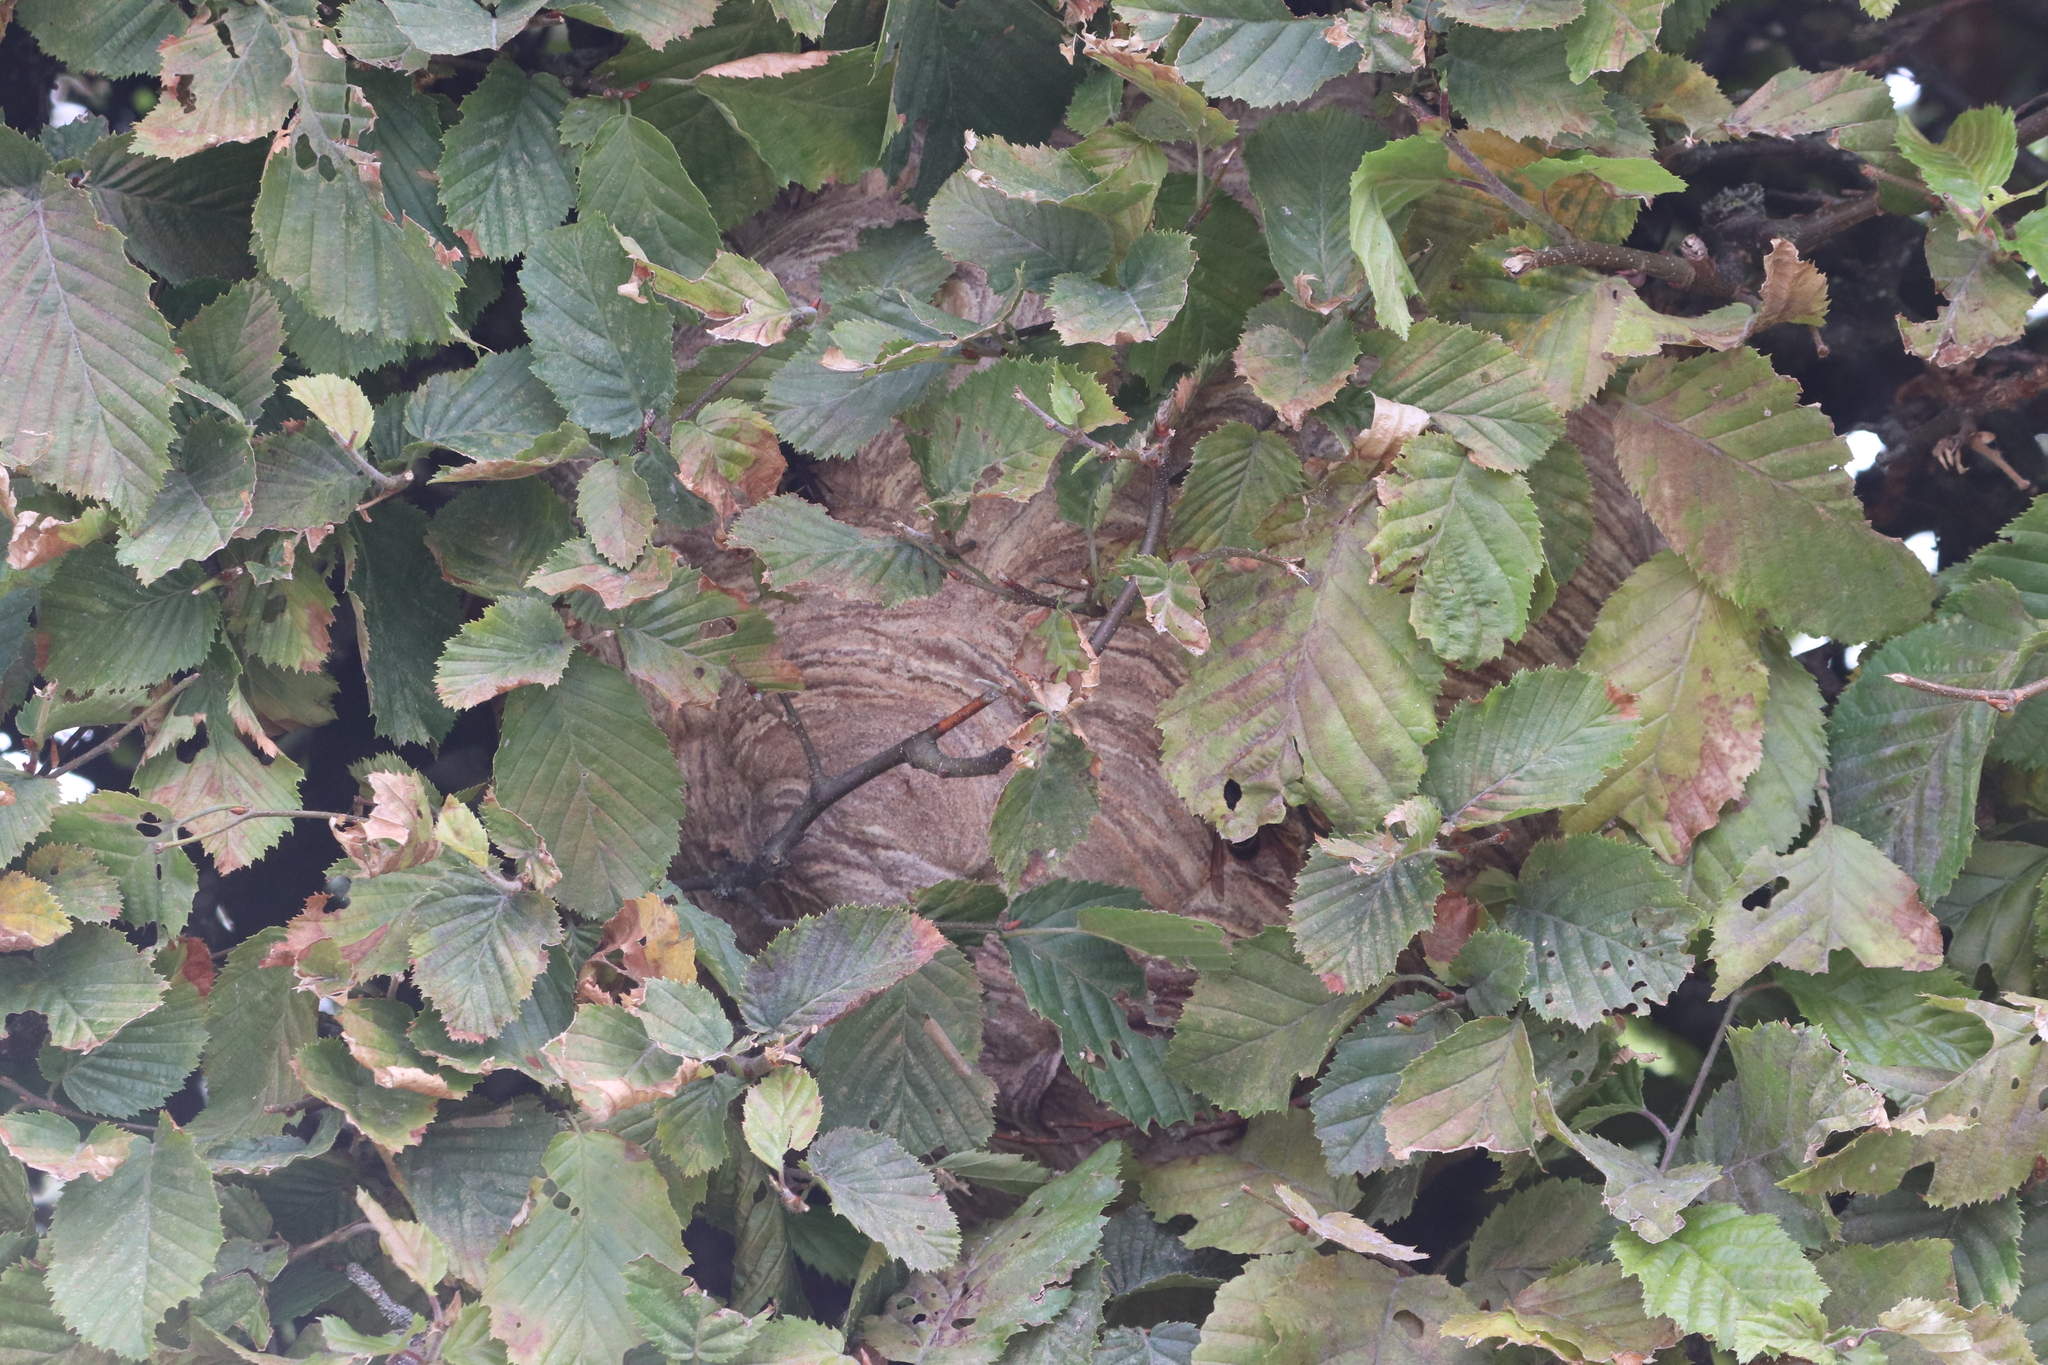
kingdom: Animalia
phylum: Arthropoda
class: Insecta
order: Hymenoptera
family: Vespidae
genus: Vespa
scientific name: Vespa velutina
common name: Asian hornet
